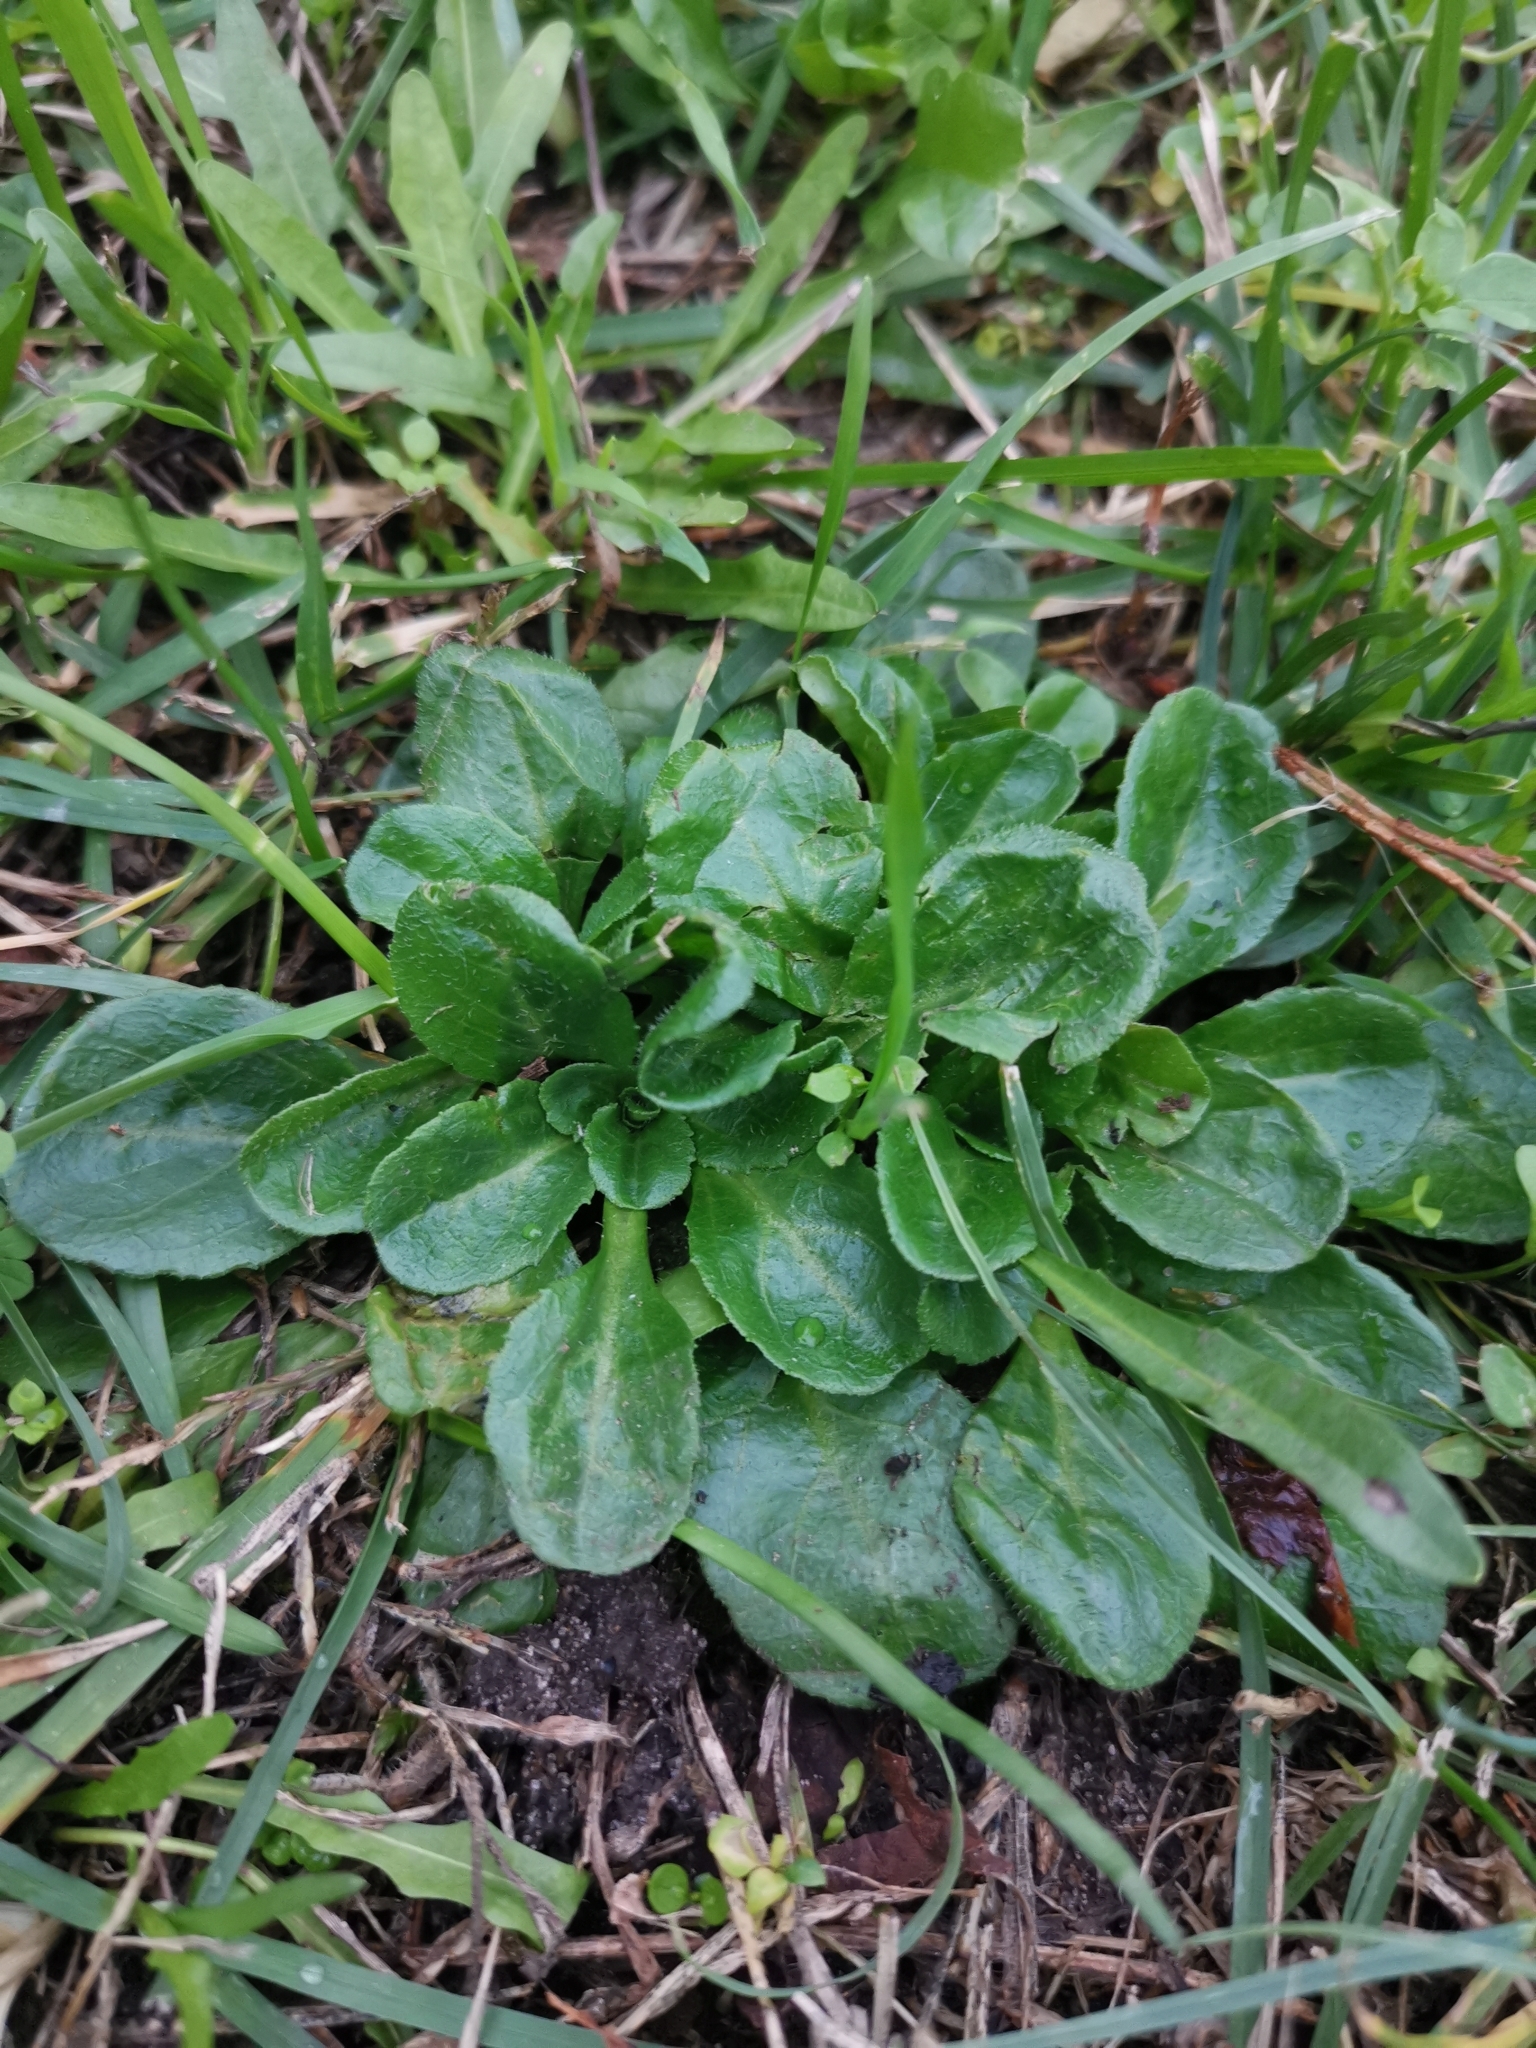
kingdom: Plantae
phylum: Tracheophyta
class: Magnoliopsida
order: Asterales
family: Asteraceae
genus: Bellis
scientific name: Bellis perennis
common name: Lawndaisy
